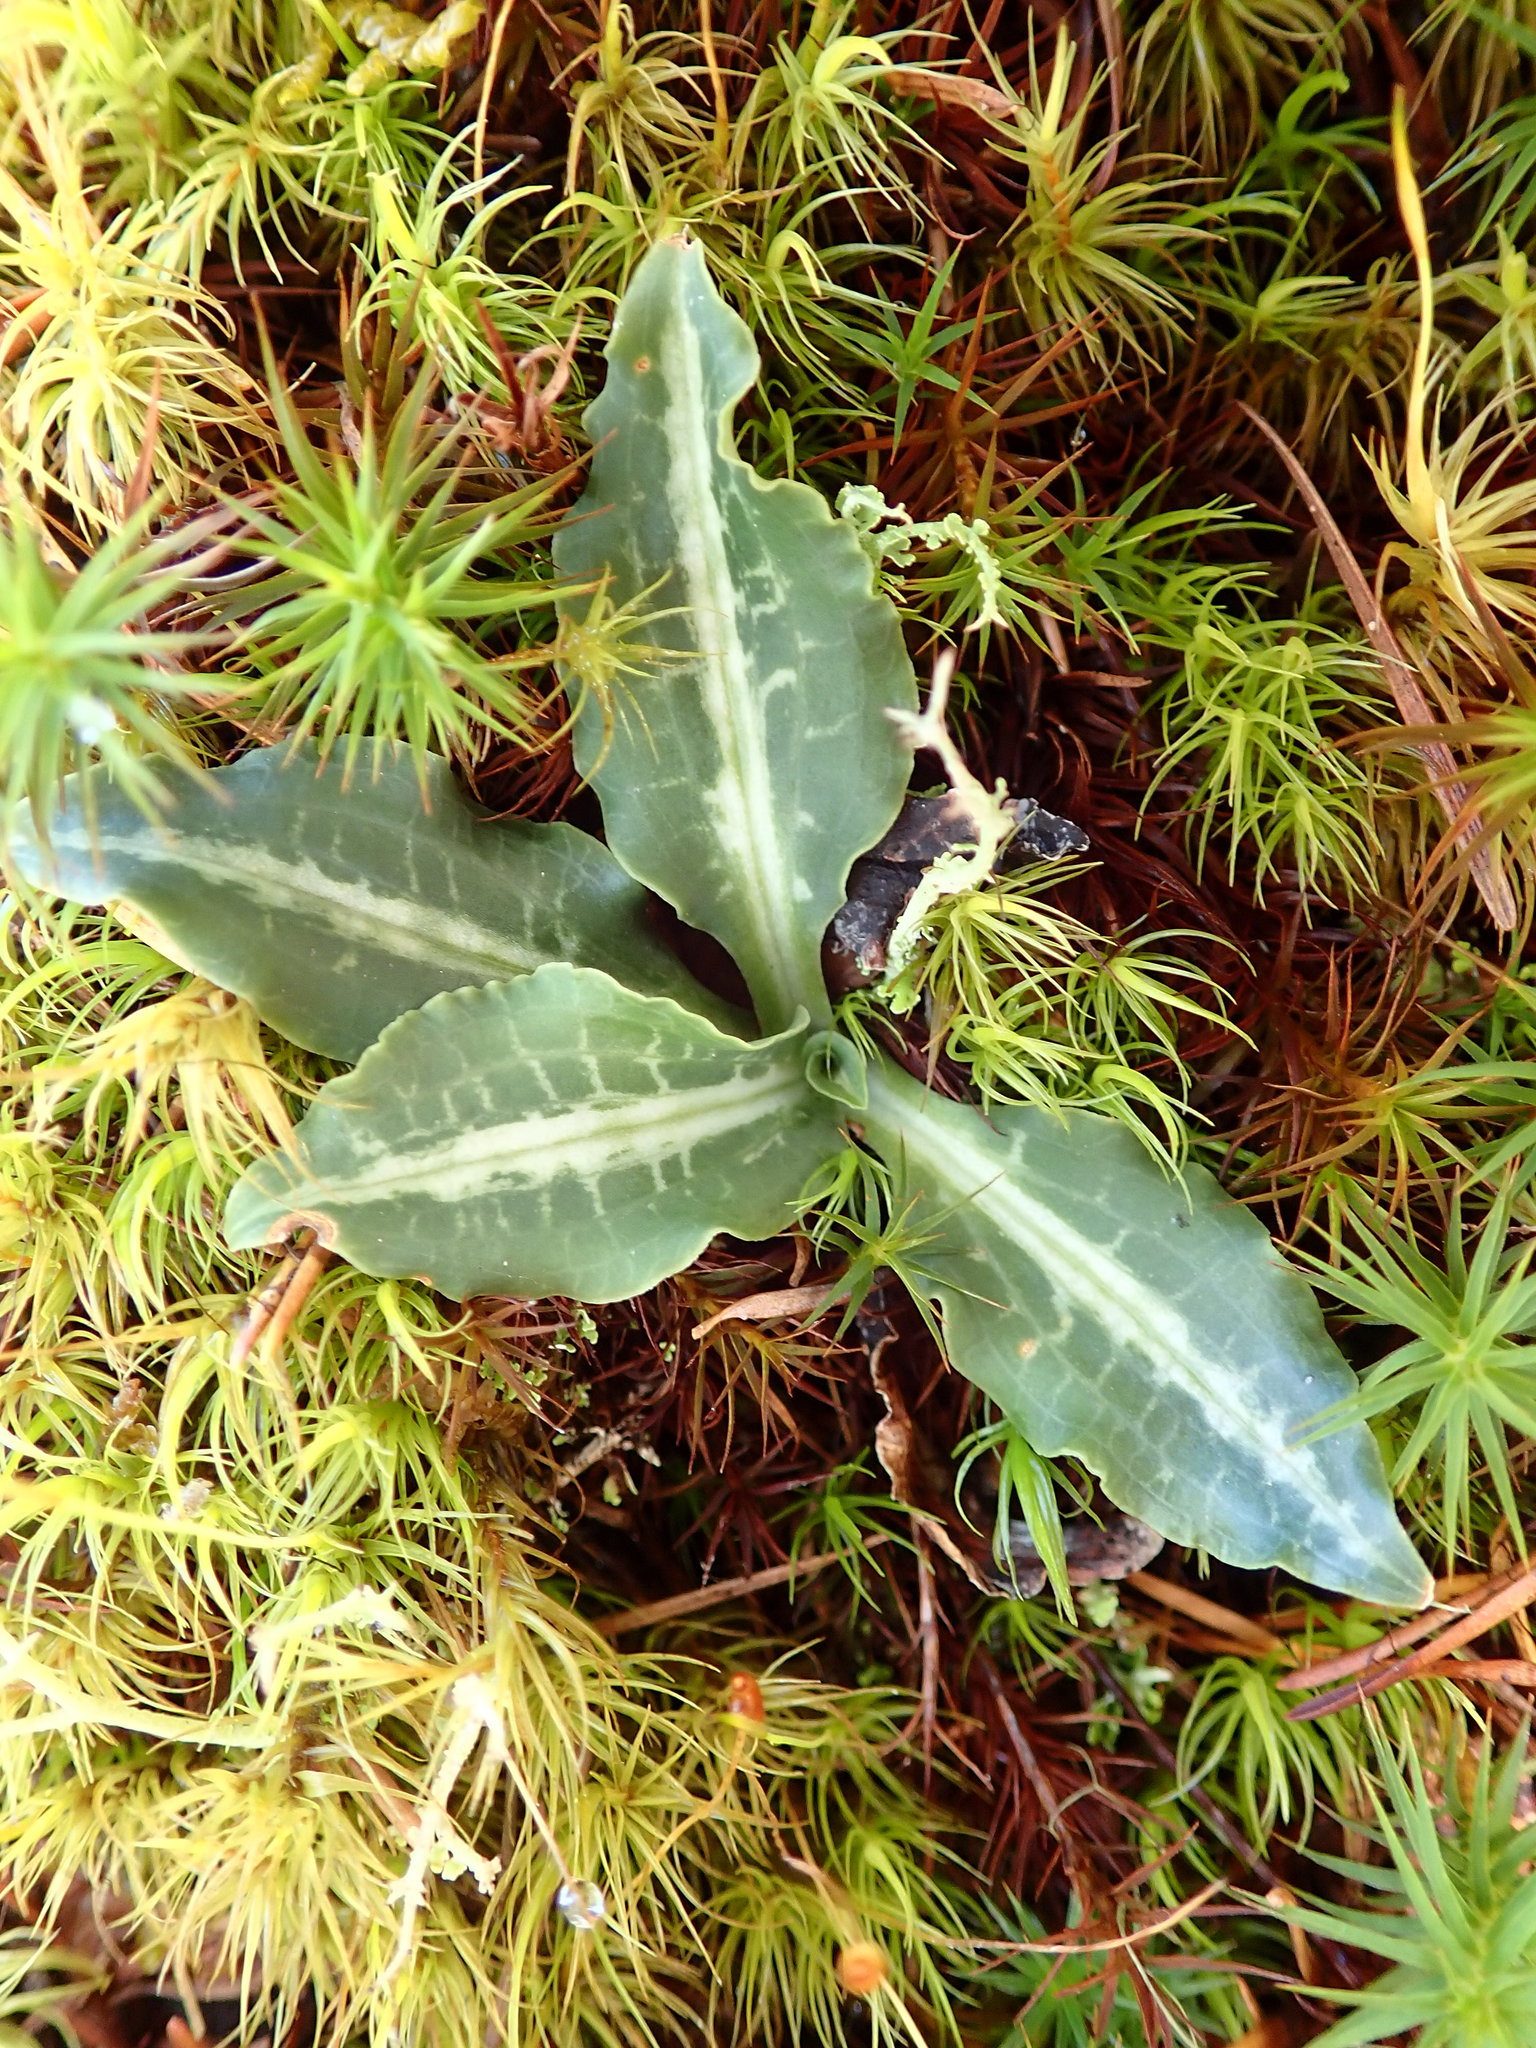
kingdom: Plantae
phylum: Tracheophyta
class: Liliopsida
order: Asparagales
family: Orchidaceae
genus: Goodyera
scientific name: Goodyera oblongifolia
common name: Giant rattlesnake-plantain
